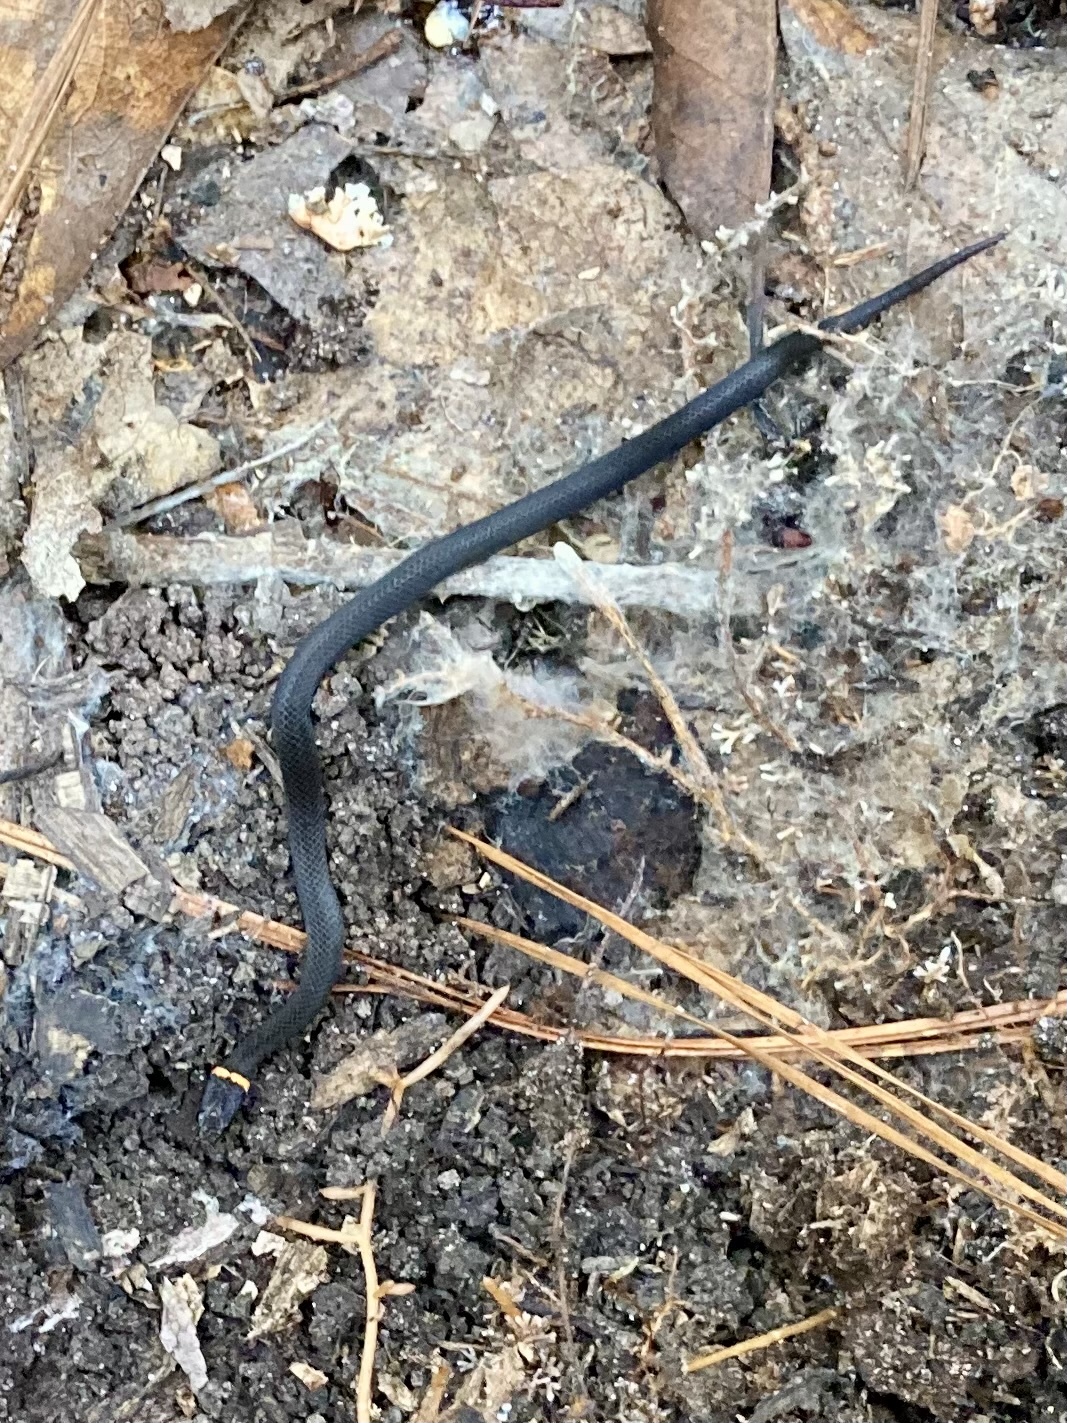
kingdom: Animalia
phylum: Chordata
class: Squamata
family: Colubridae
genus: Diadophis
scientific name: Diadophis punctatus
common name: Ringneck snake
